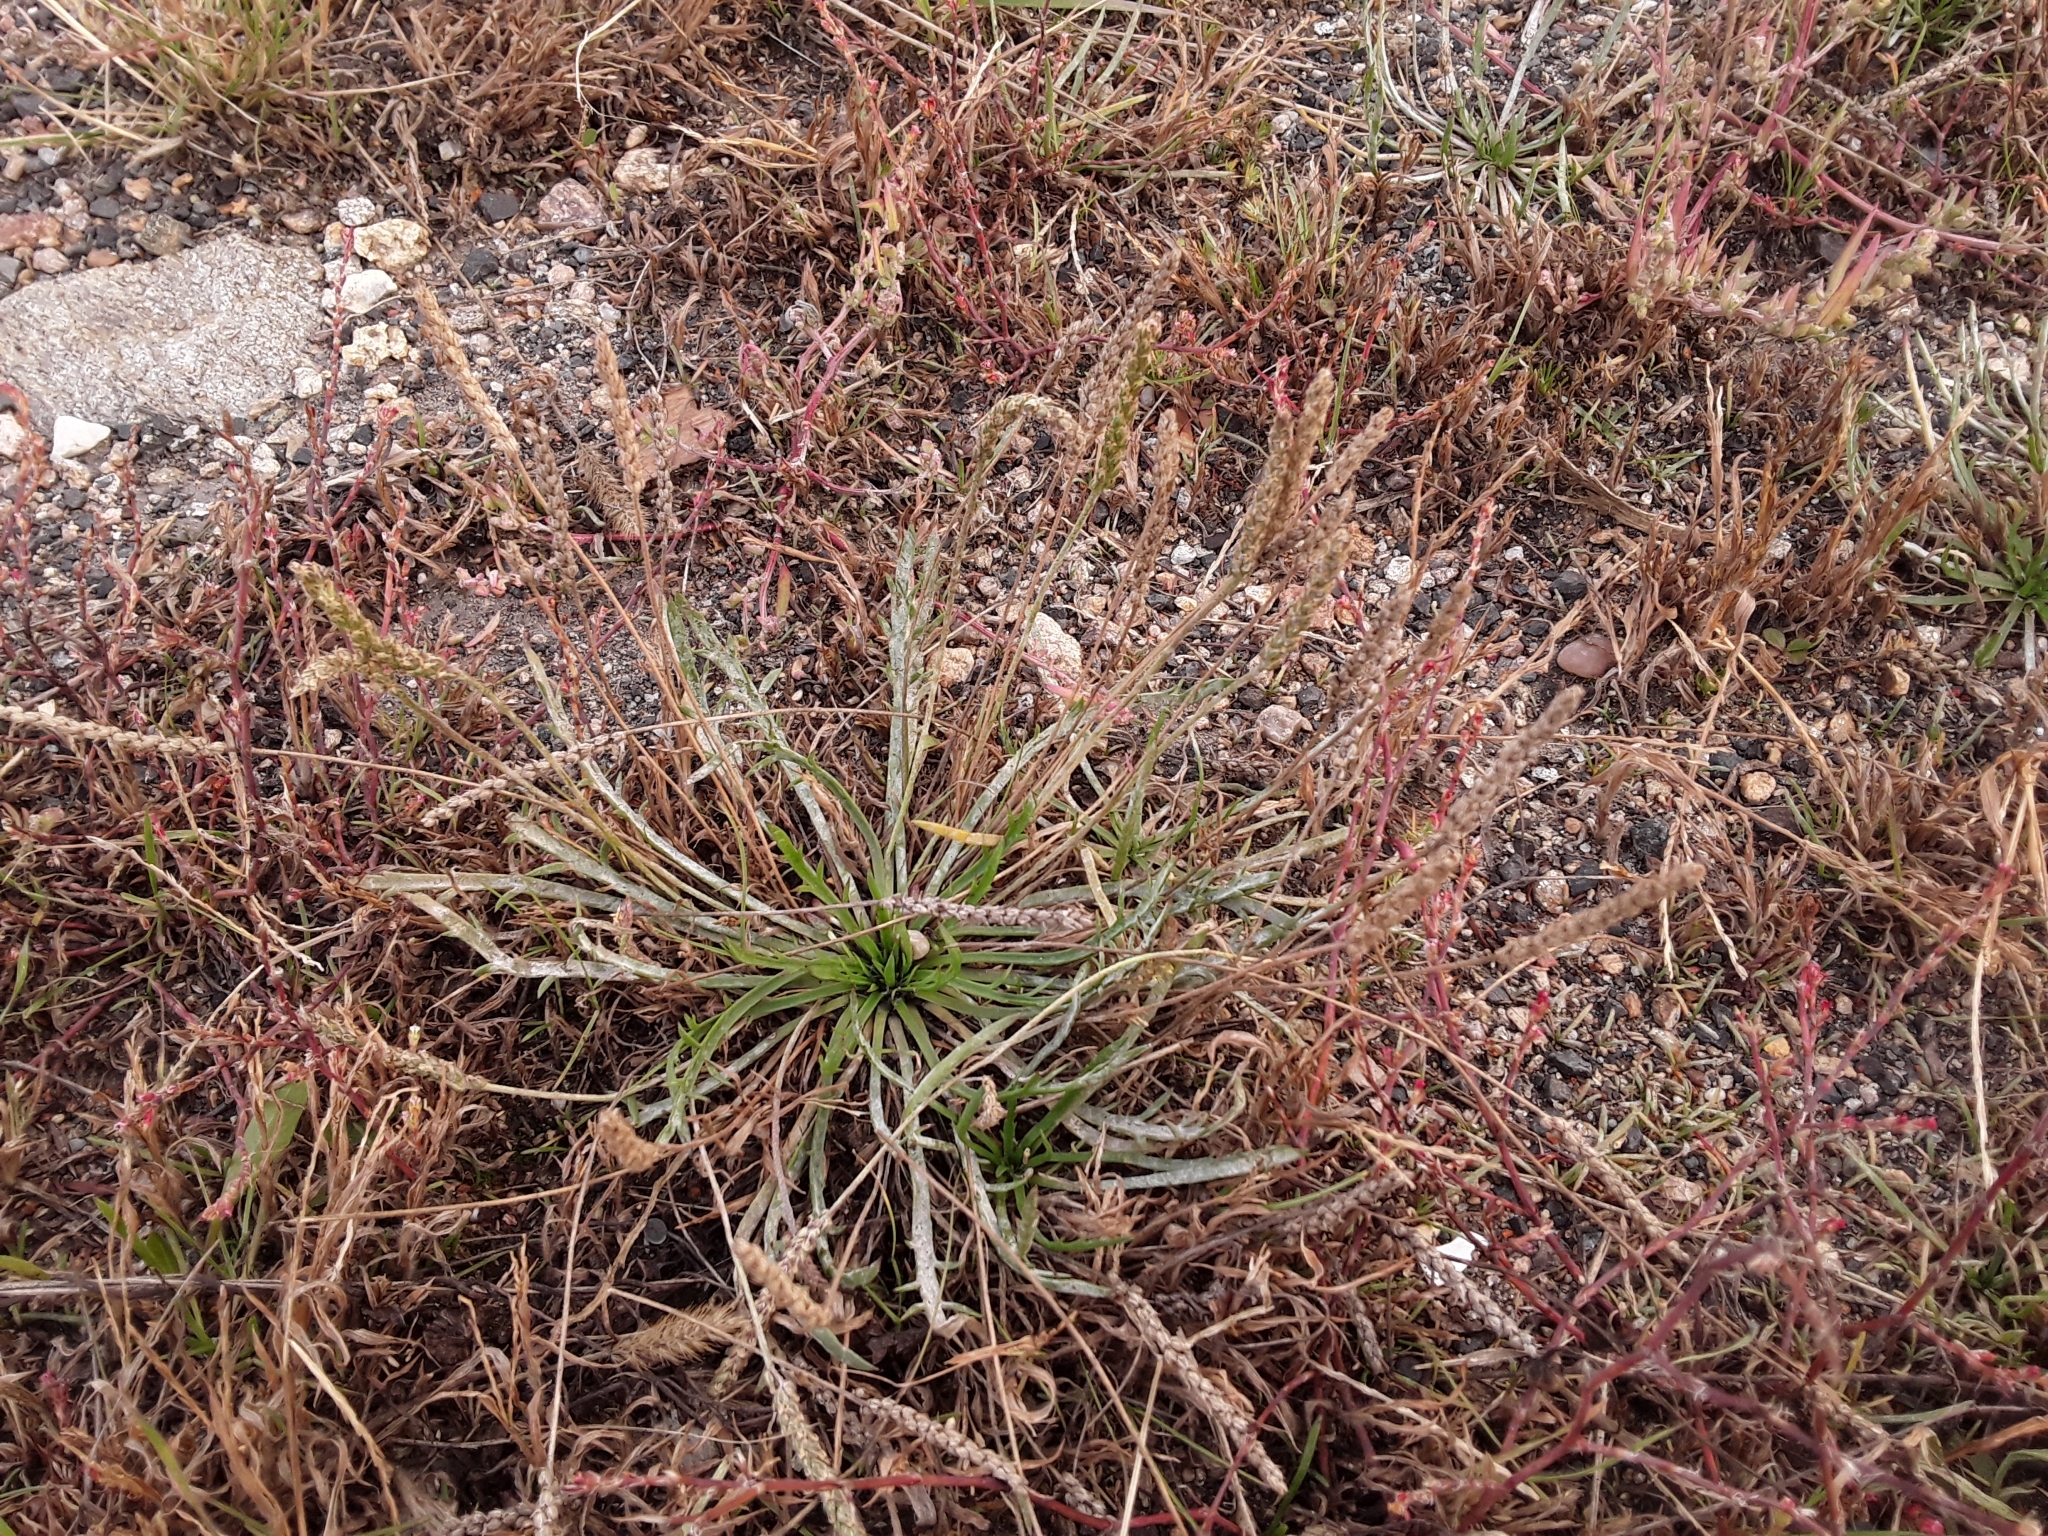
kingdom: Plantae
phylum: Tracheophyta
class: Magnoliopsida
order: Lamiales
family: Plantaginaceae
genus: Plantago
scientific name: Plantago coronopus
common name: Buck's-horn plantain
